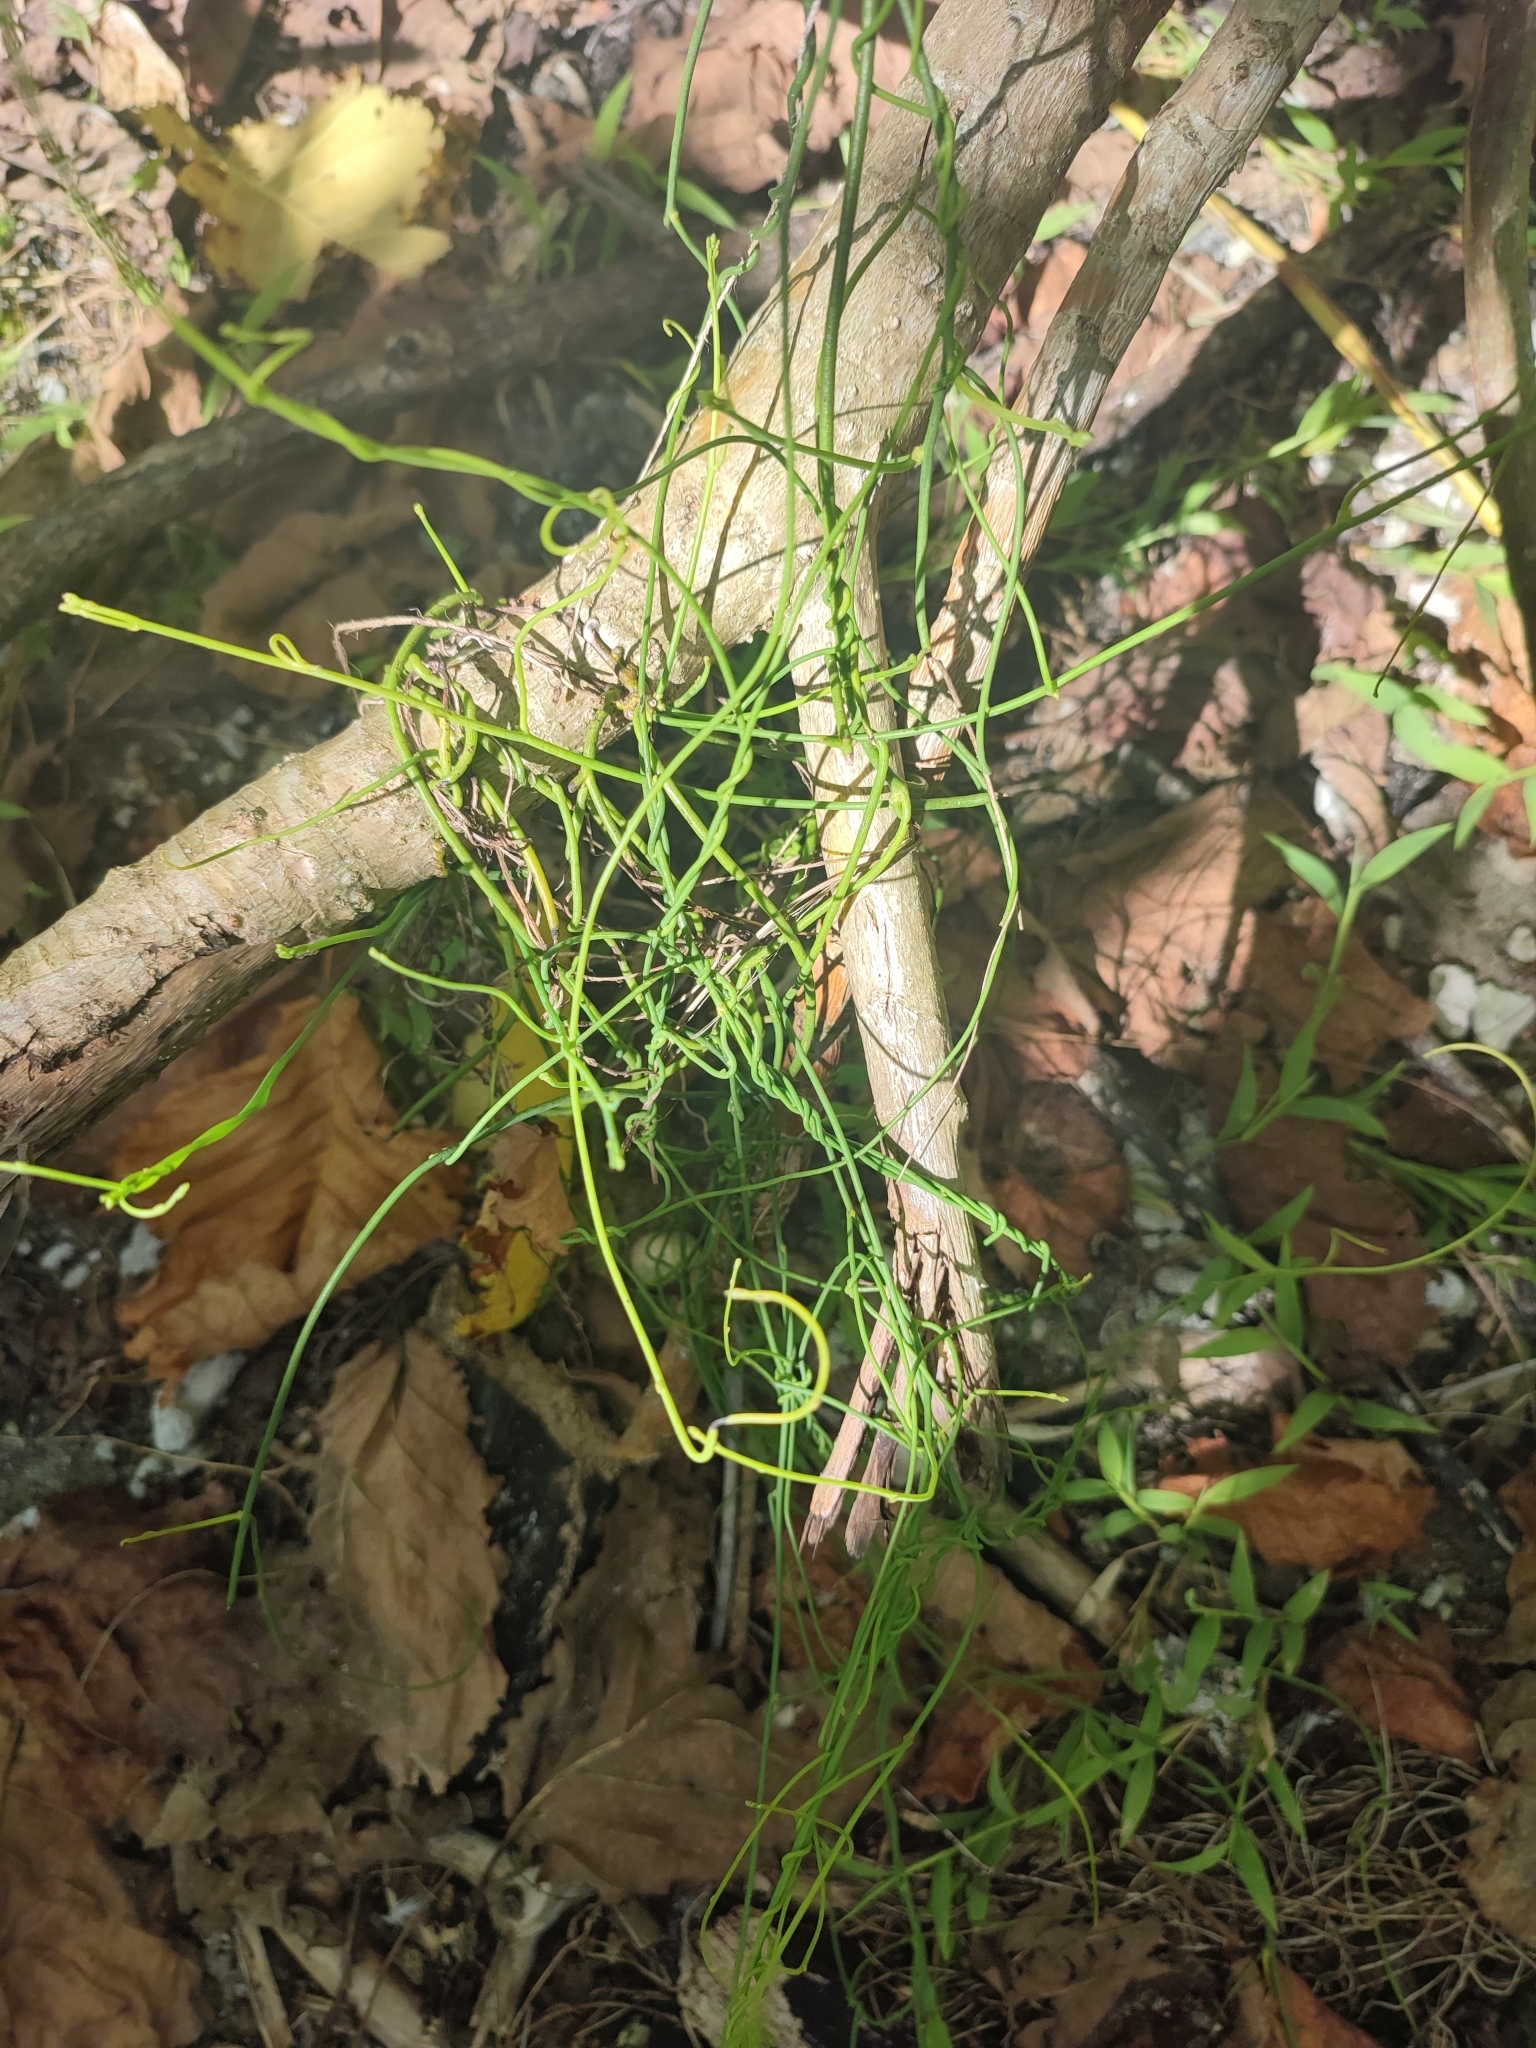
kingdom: Plantae
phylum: Tracheophyta
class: Magnoliopsida
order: Laurales
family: Lauraceae
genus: Cassytha
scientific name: Cassytha filiformis
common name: Dodder-laurel
